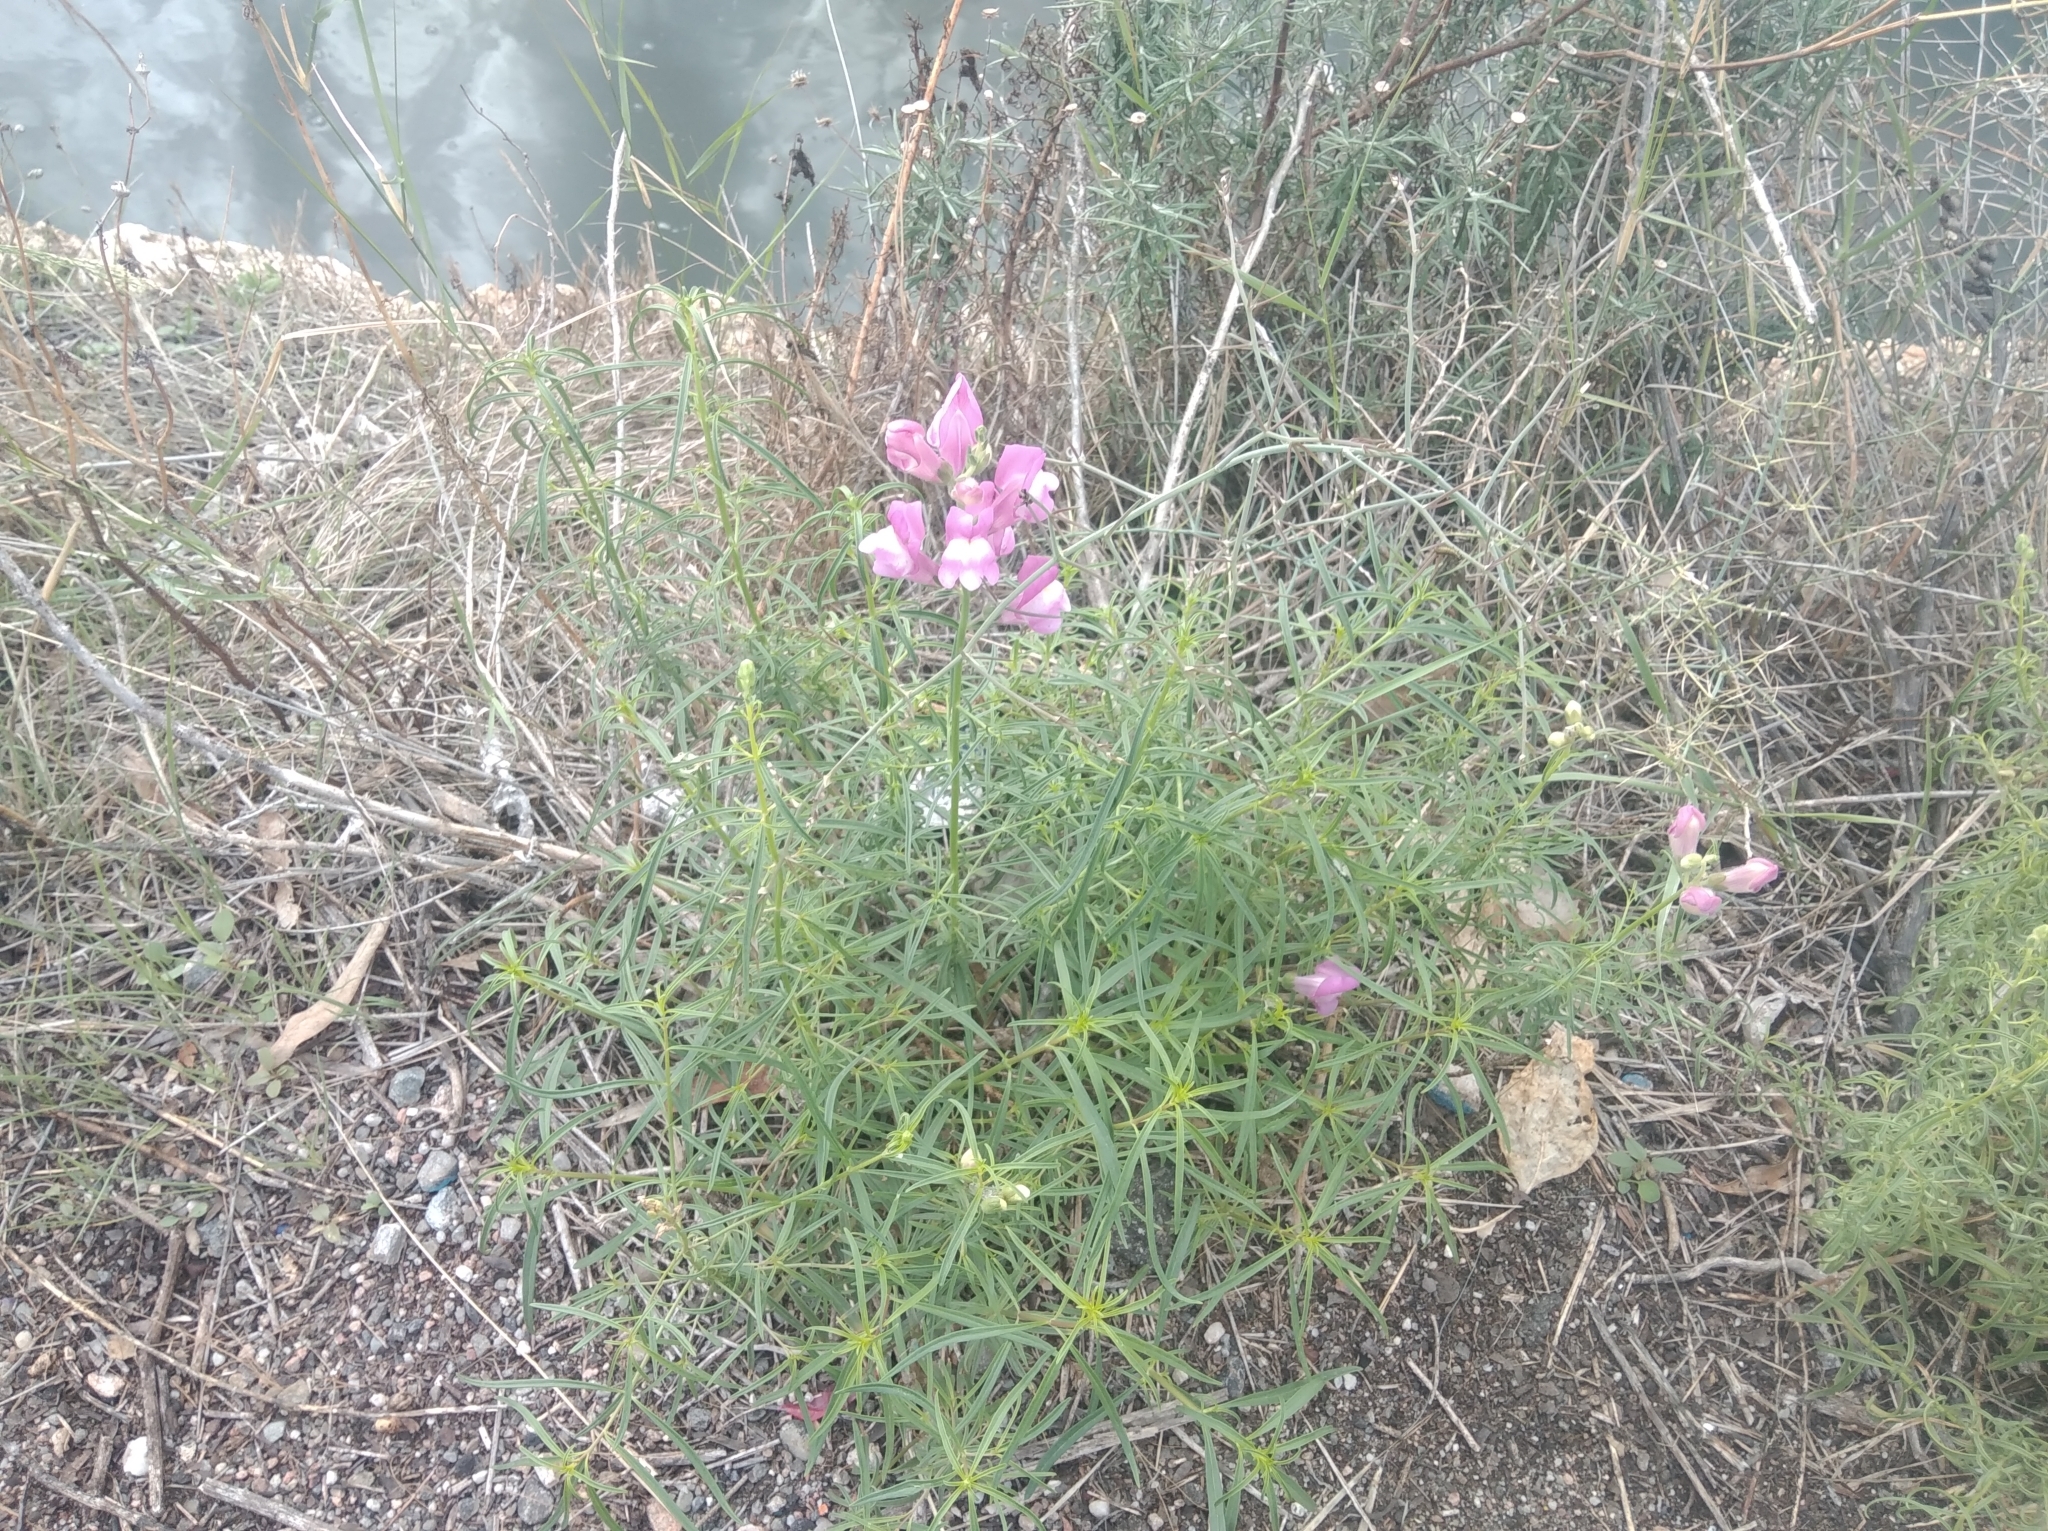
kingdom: Plantae
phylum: Tracheophyta
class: Magnoliopsida
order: Lamiales
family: Plantaginaceae
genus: Antirrhinum
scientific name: Antirrhinum tortuosum
